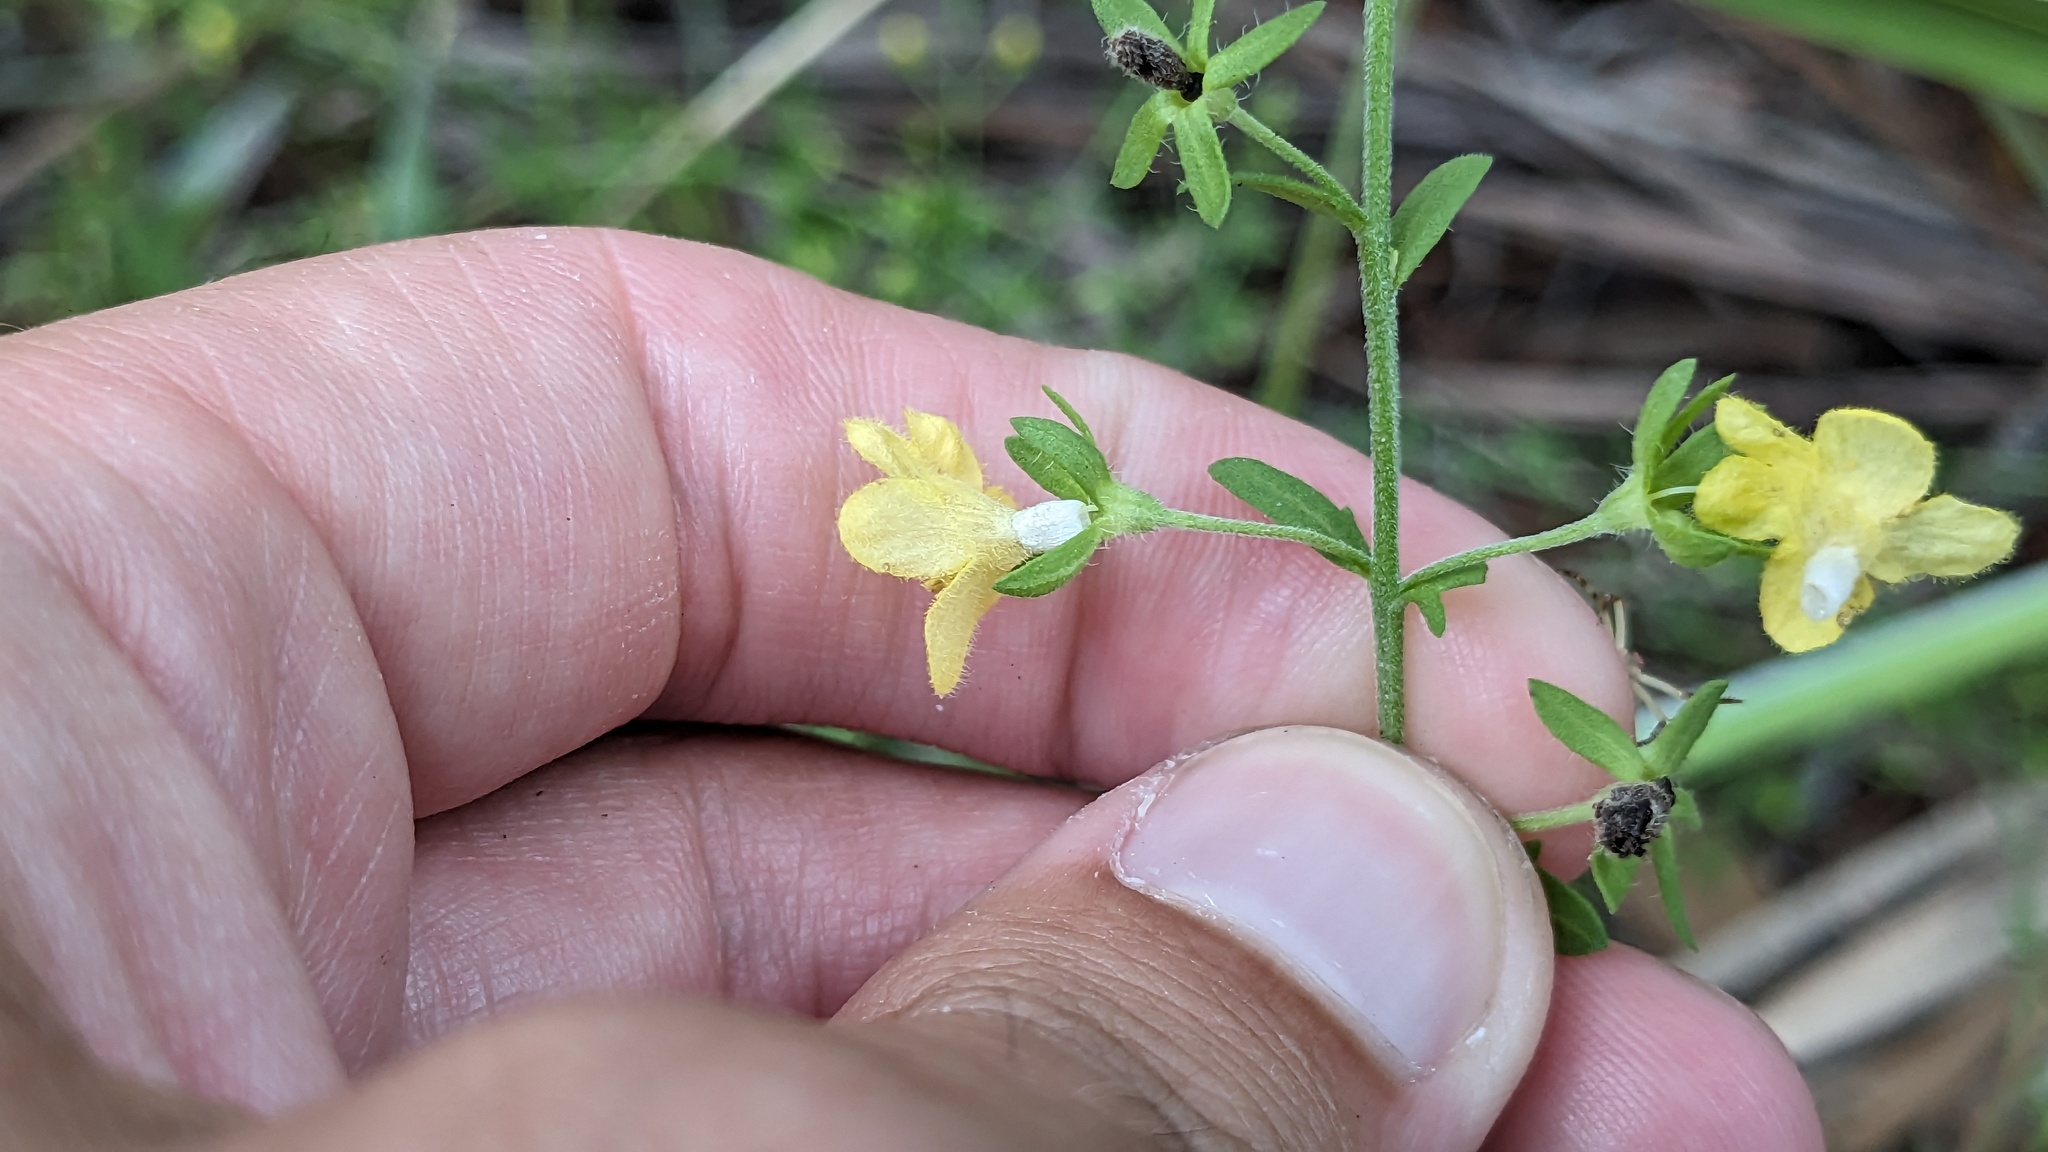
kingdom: Plantae
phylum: Tracheophyta
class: Magnoliopsida
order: Lamiales
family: Orobanchaceae
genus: Seymeria
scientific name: Seymeria pectinata
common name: Piedmont black-senna
